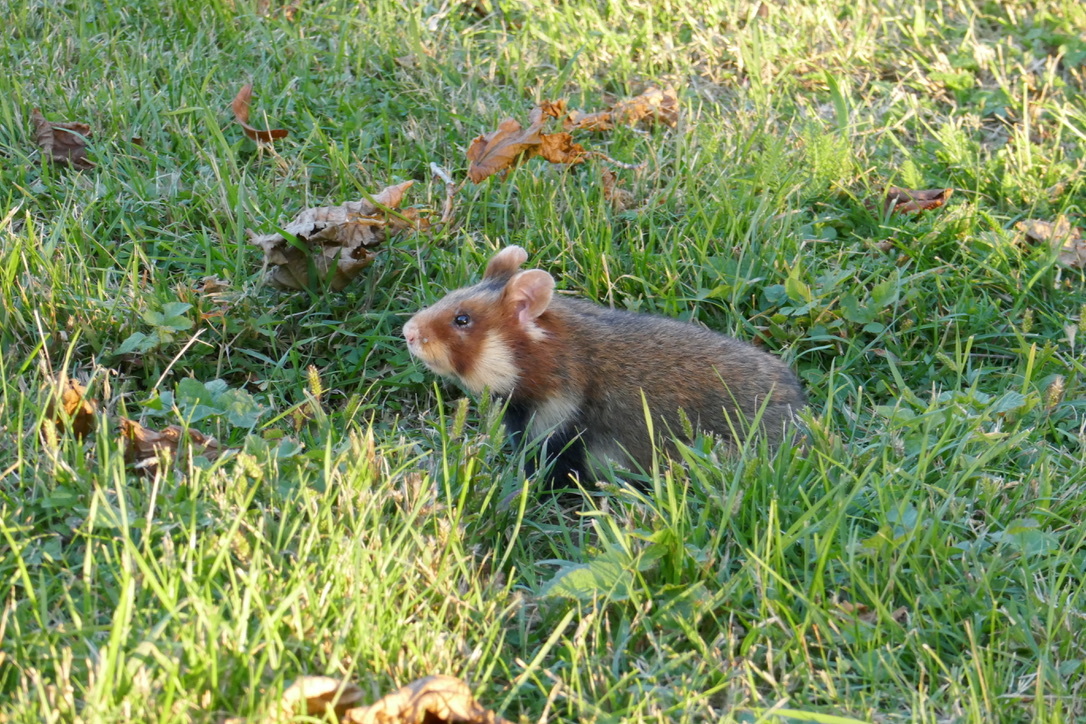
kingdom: Animalia
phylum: Chordata
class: Mammalia
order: Rodentia
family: Cricetidae
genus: Cricetus
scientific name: Cricetus cricetus
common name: Common hamster
